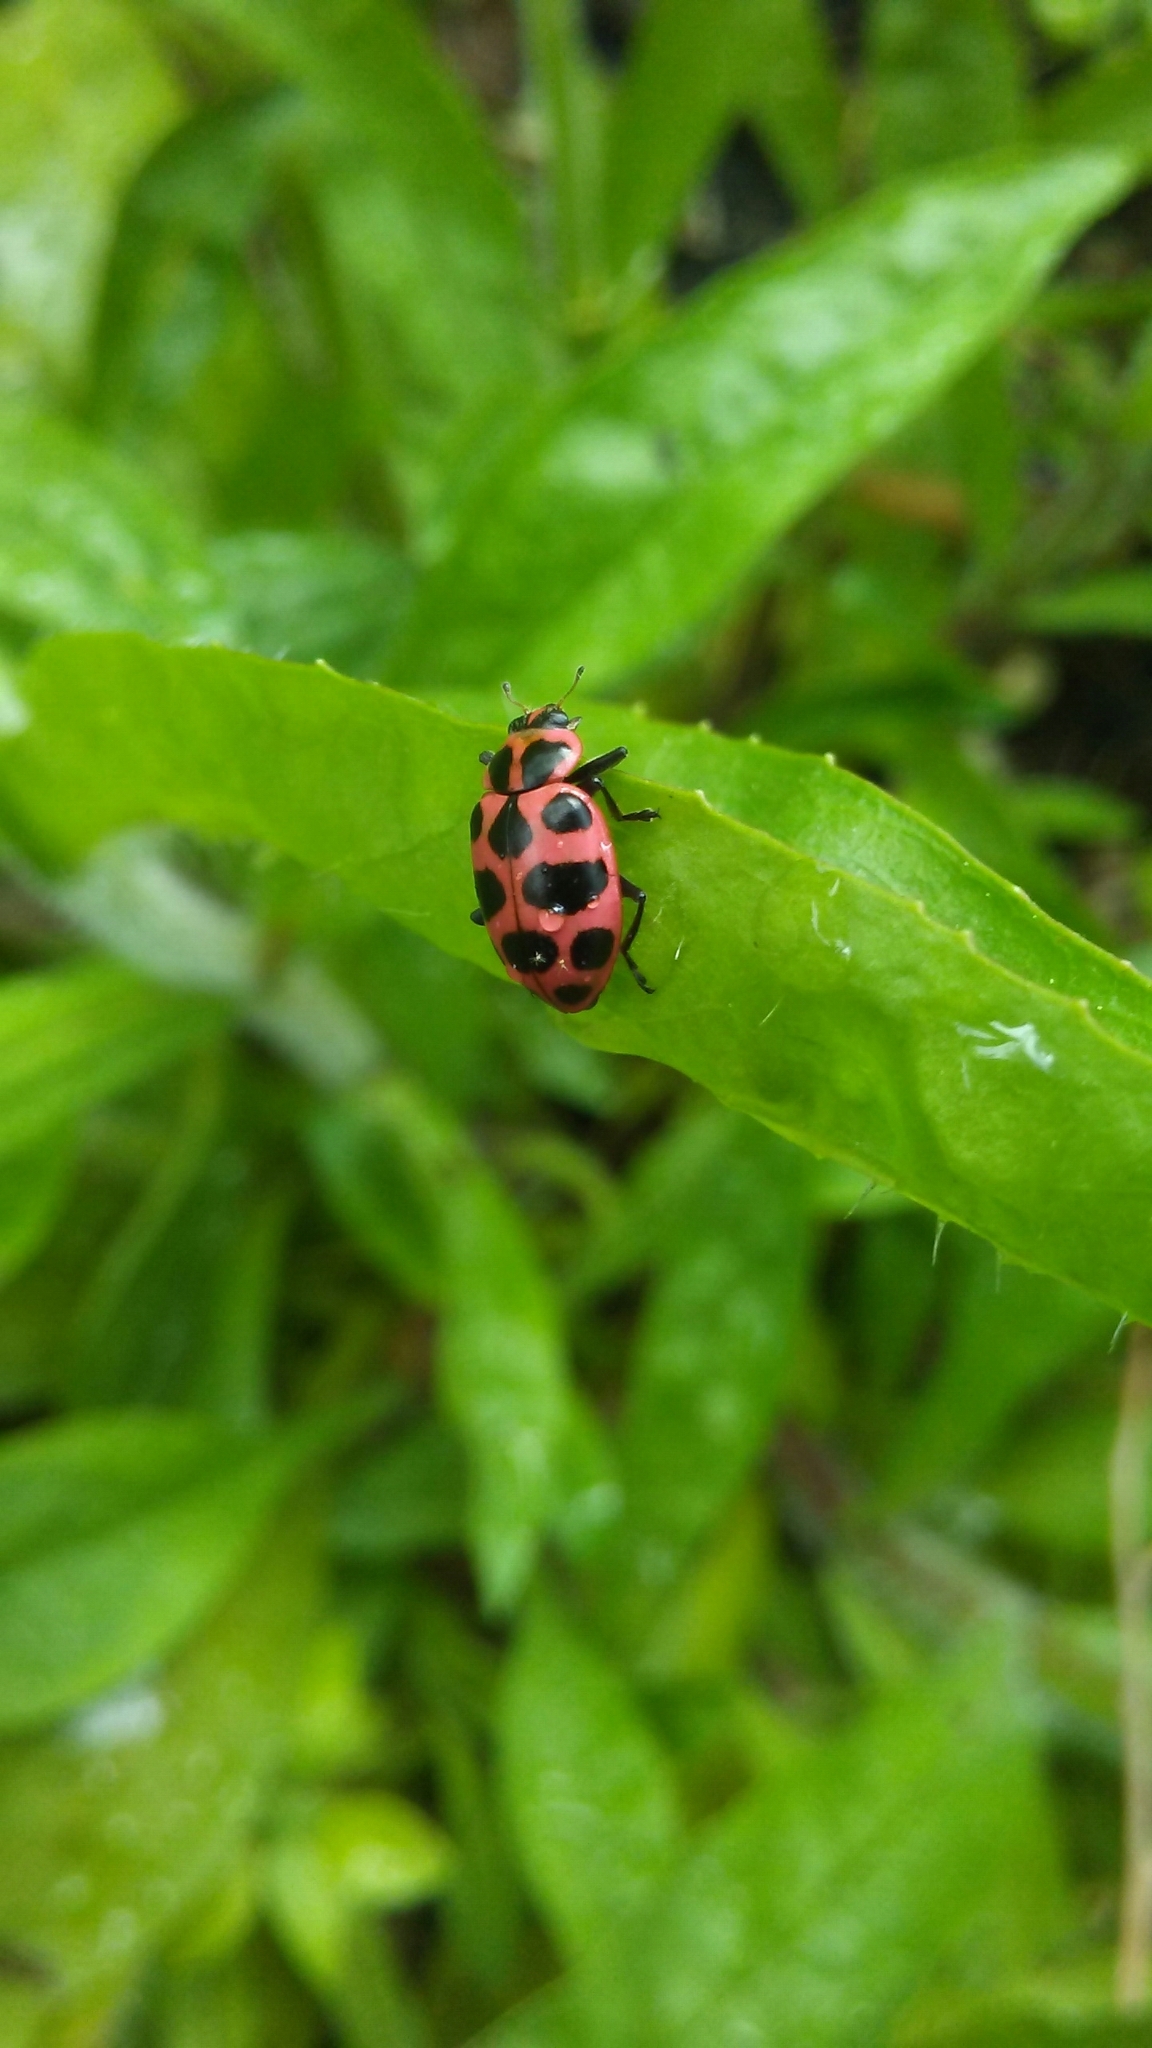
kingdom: Animalia
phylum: Arthropoda
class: Insecta
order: Coleoptera
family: Coccinellidae
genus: Coleomegilla
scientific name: Coleomegilla maculata
